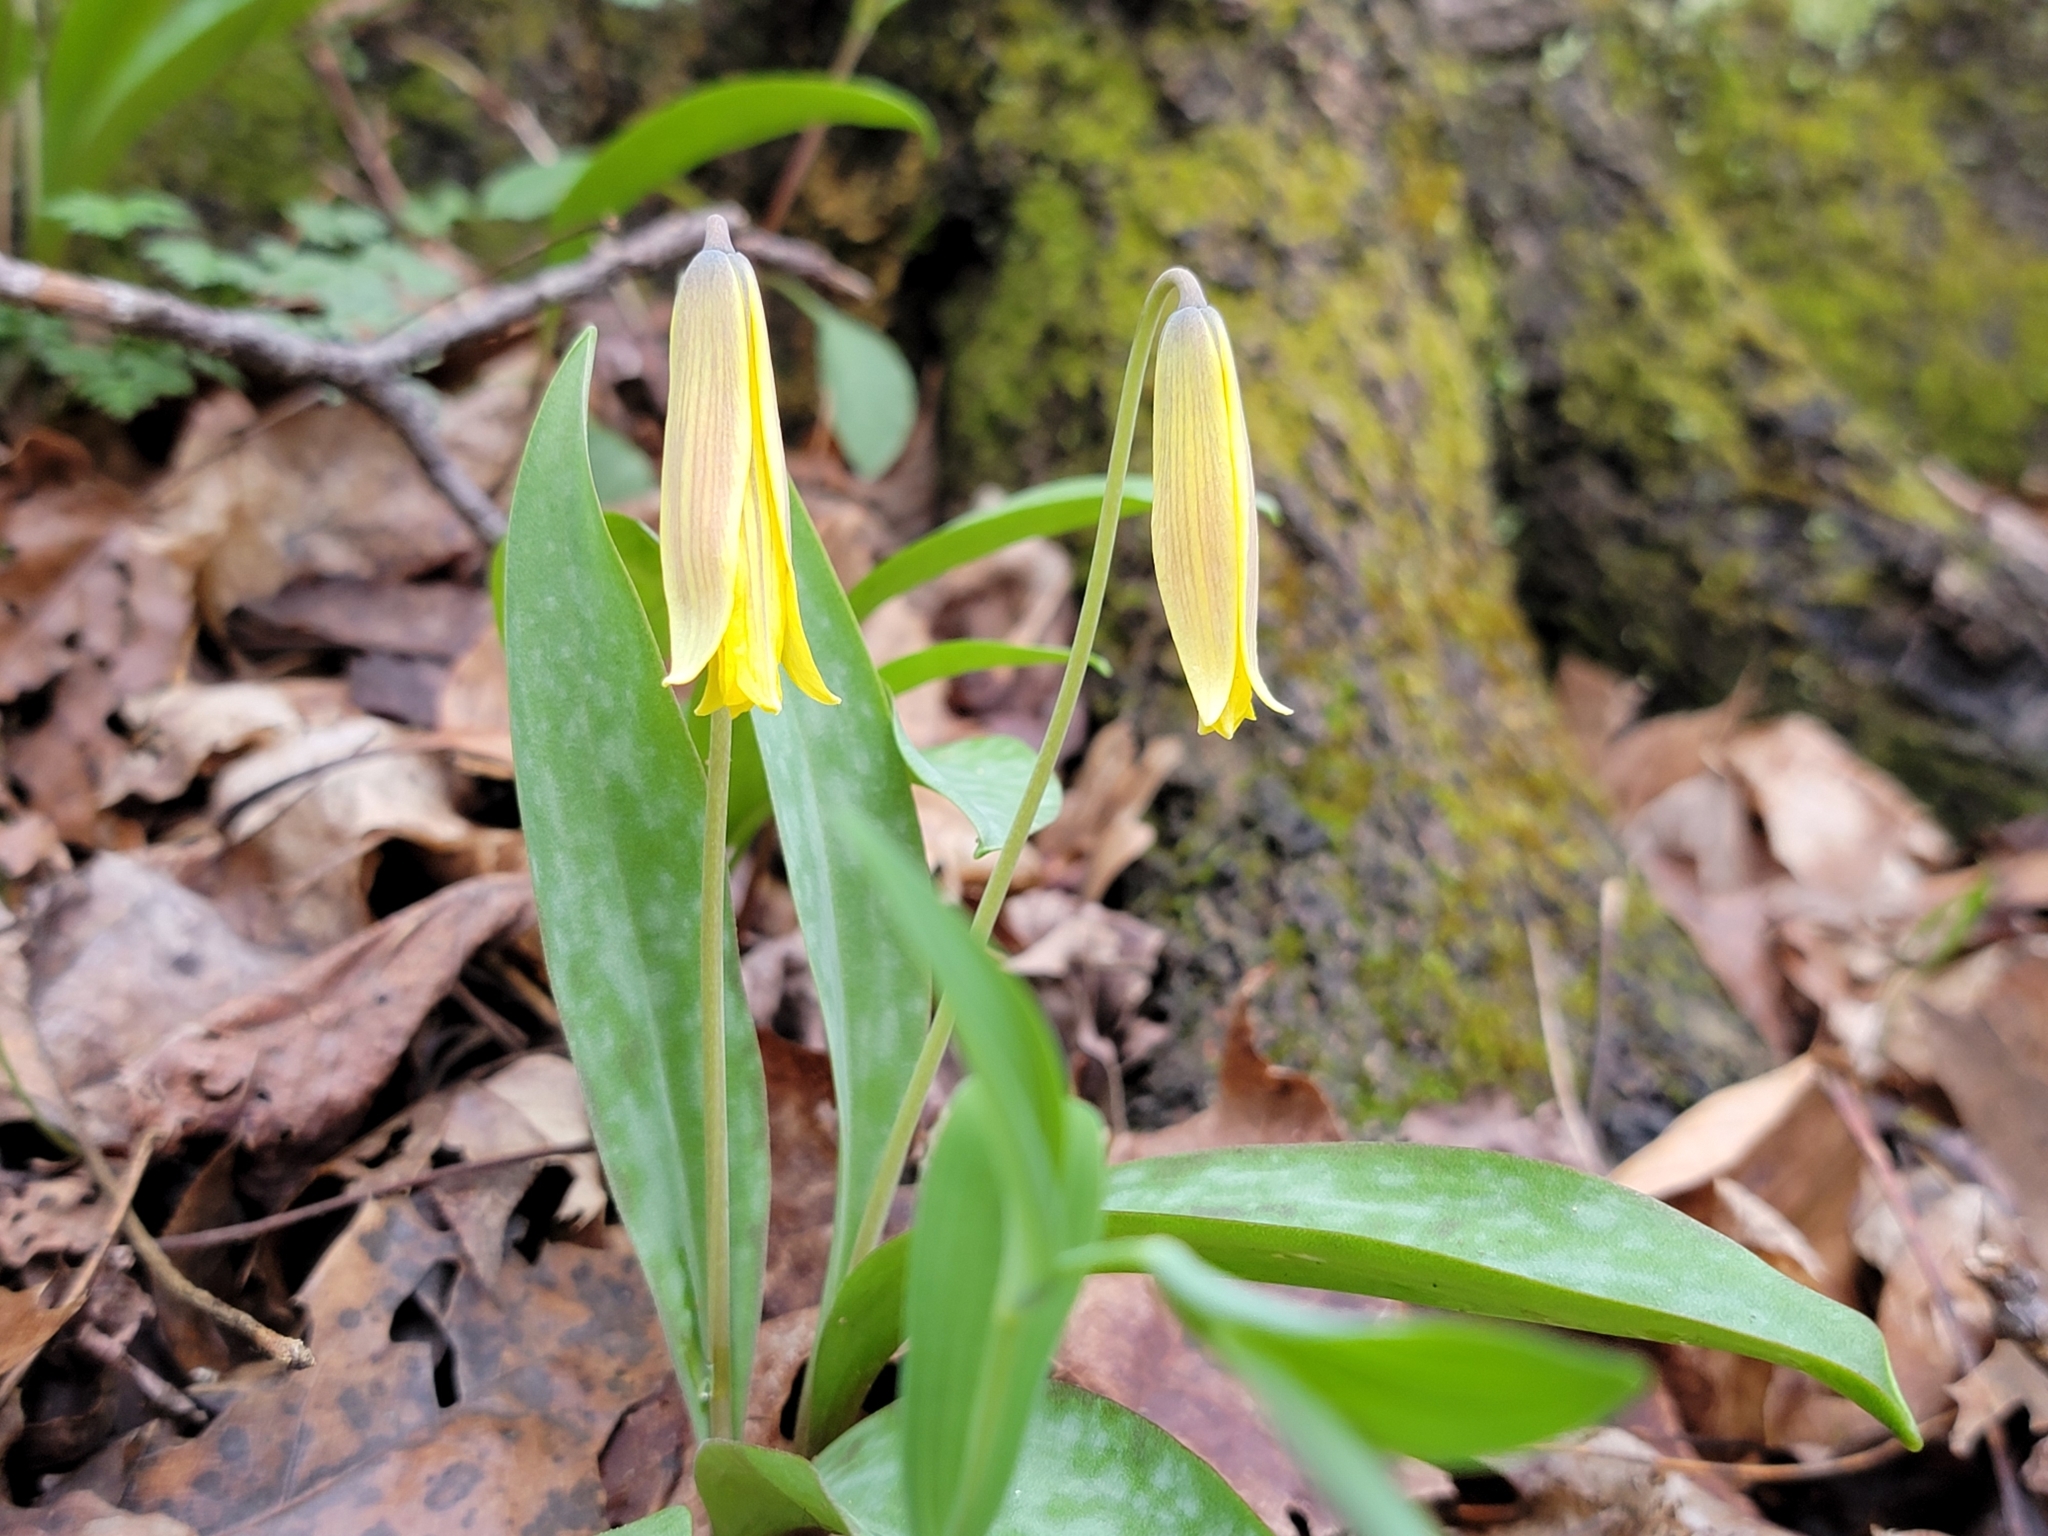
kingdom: Plantae
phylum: Tracheophyta
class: Liliopsida
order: Liliales
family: Liliaceae
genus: Erythronium
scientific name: Erythronium americanum
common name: Yellow adder's-tongue
